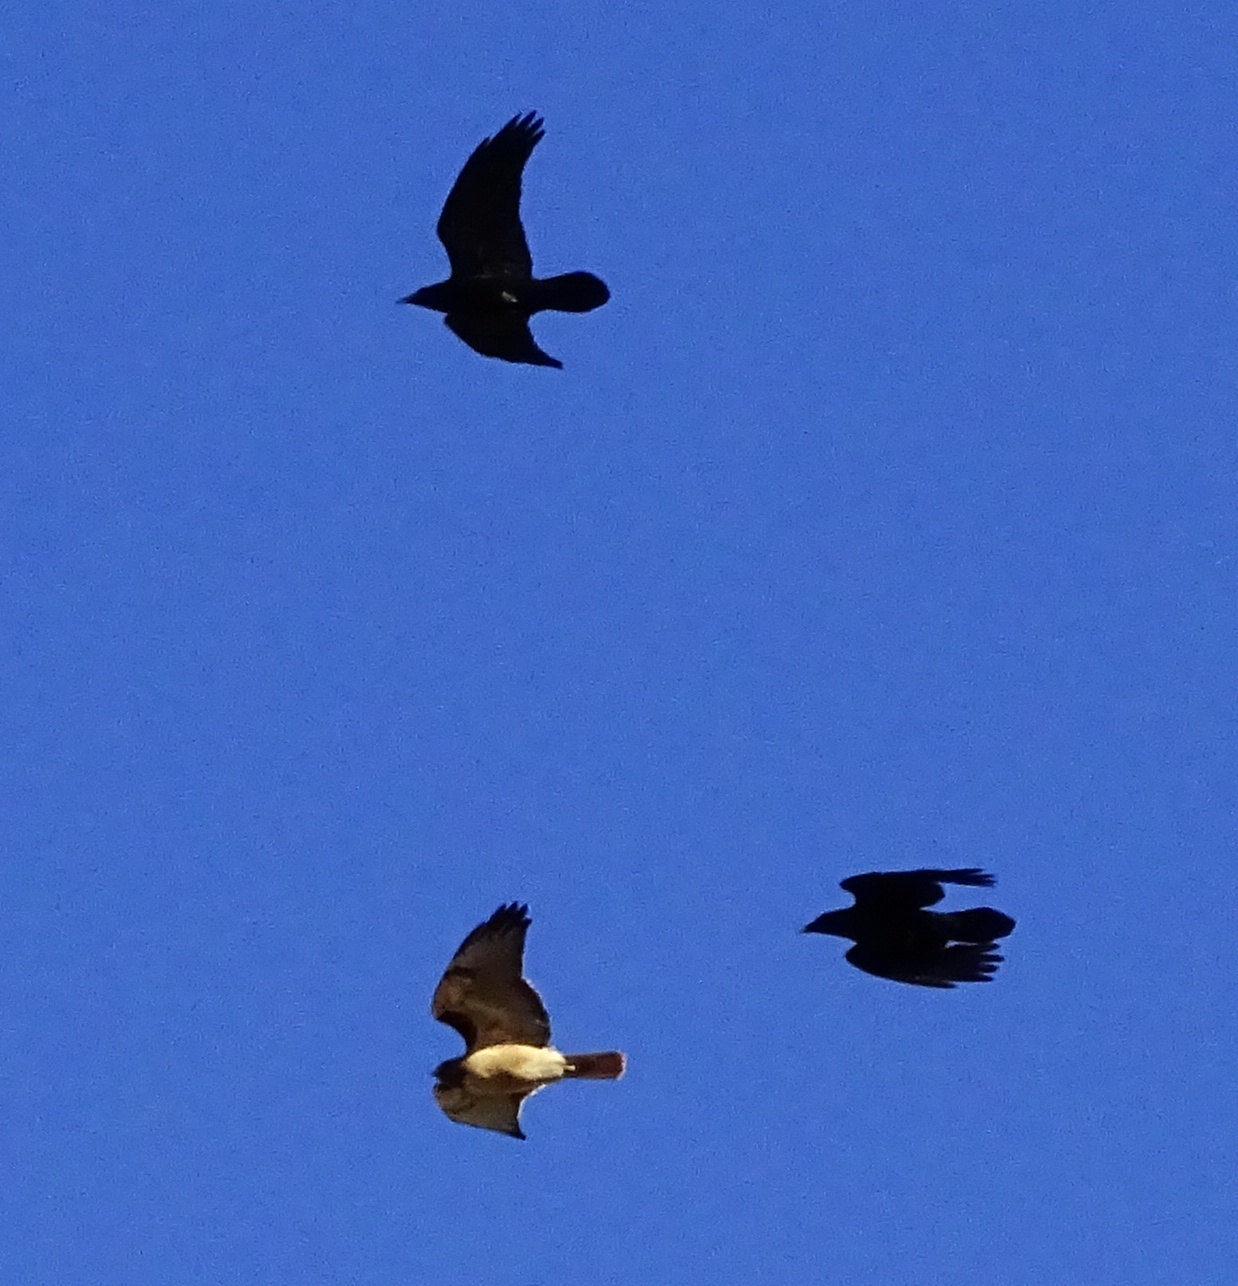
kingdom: Animalia
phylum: Chordata
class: Aves
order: Accipitriformes
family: Accipitridae
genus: Buteo
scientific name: Buteo jamaicensis
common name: Red-tailed hawk
